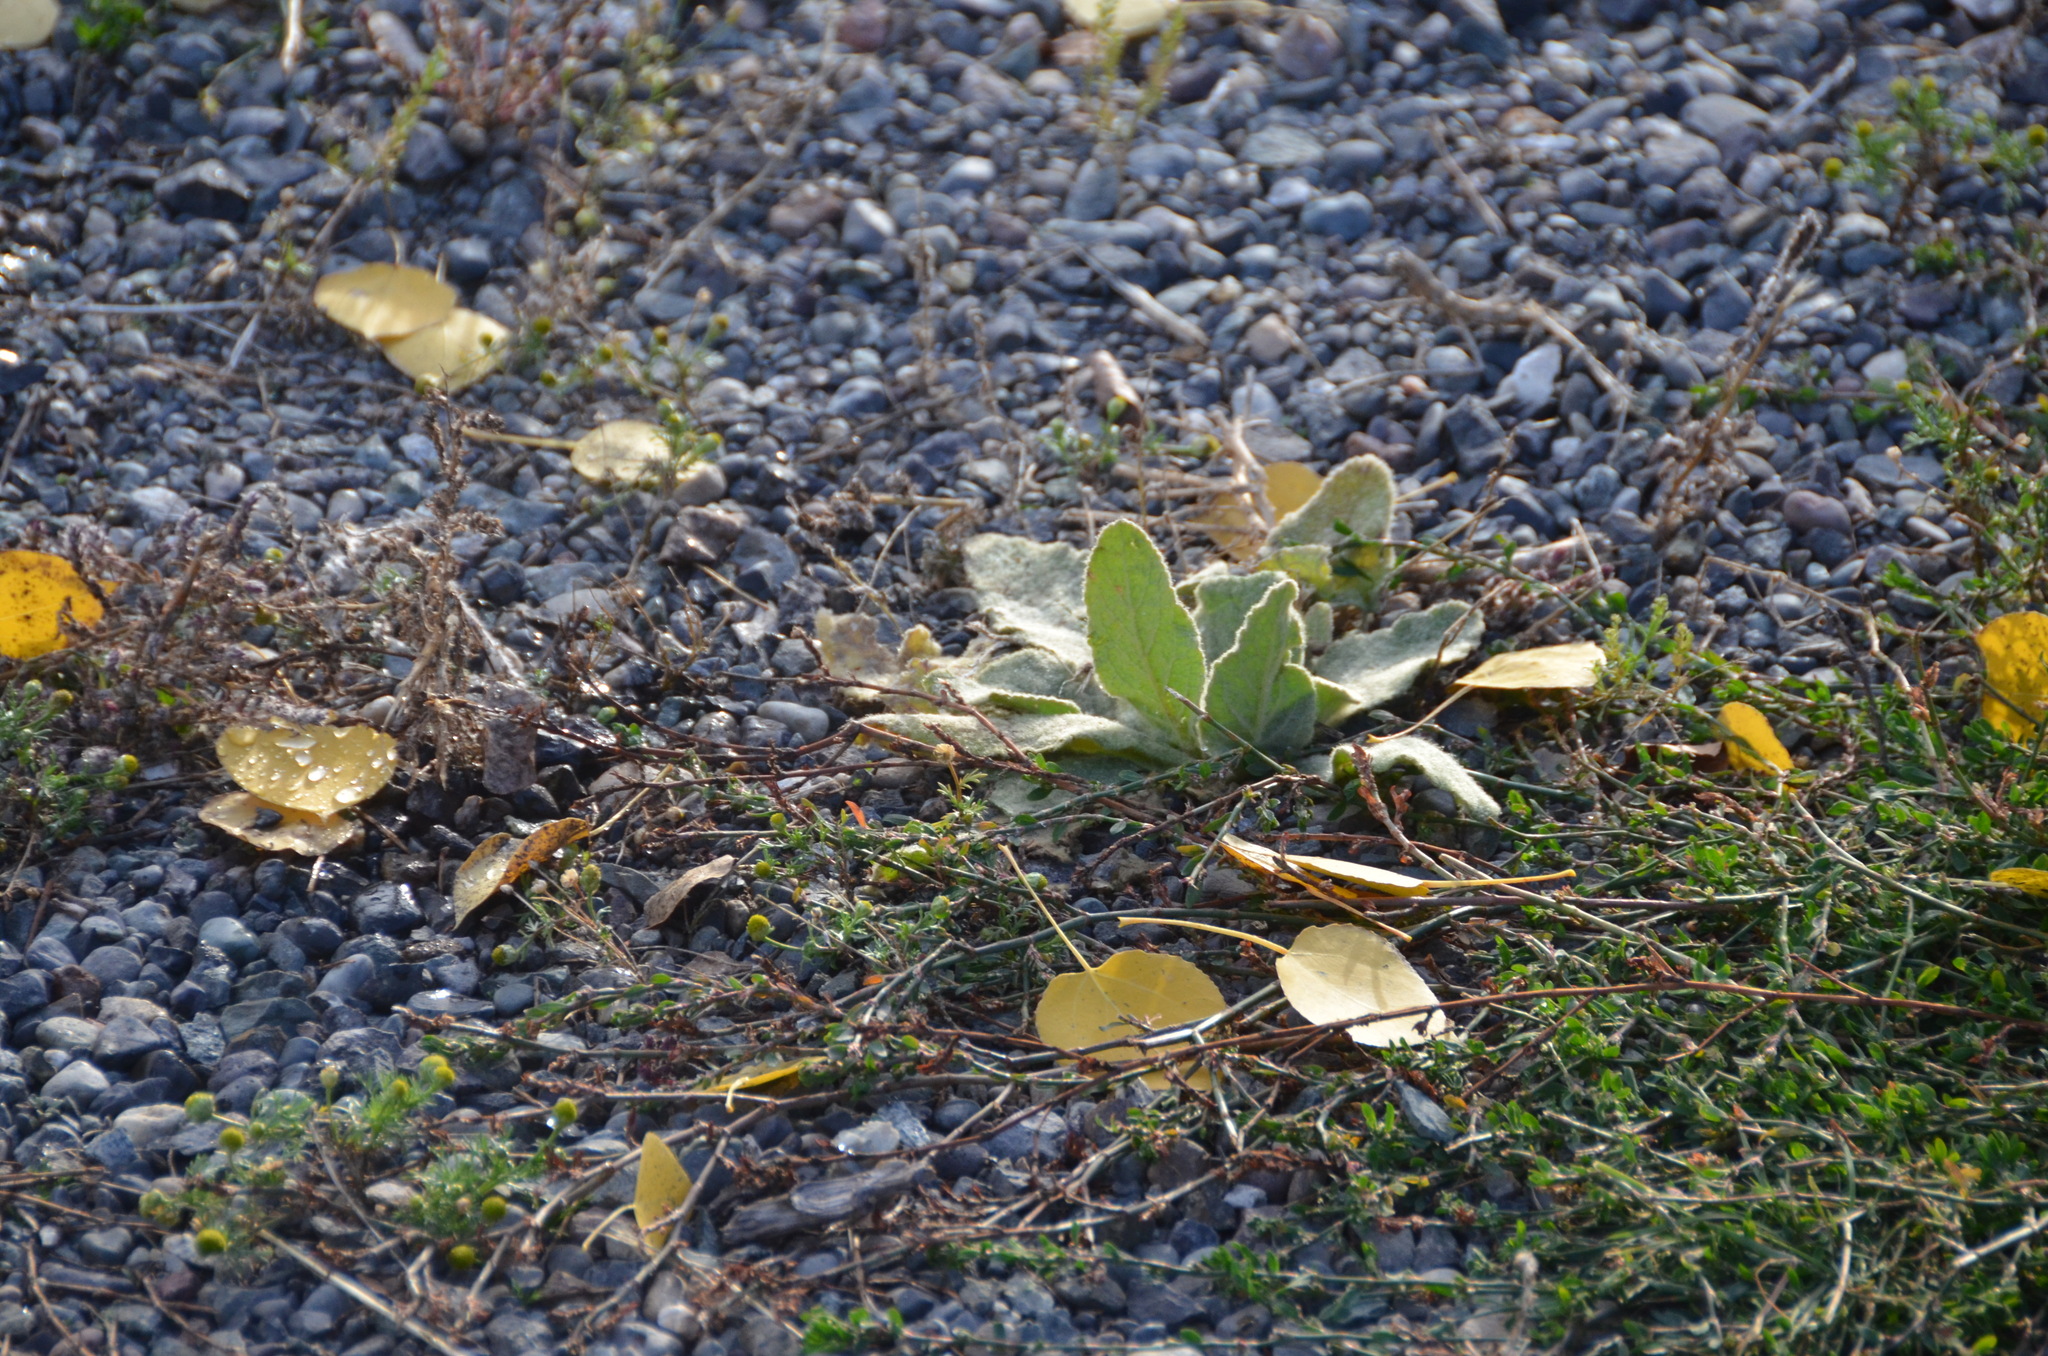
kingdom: Plantae
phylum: Tracheophyta
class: Magnoliopsida
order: Lamiales
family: Scrophulariaceae
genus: Verbascum
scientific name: Verbascum thapsus
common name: Common mullein
